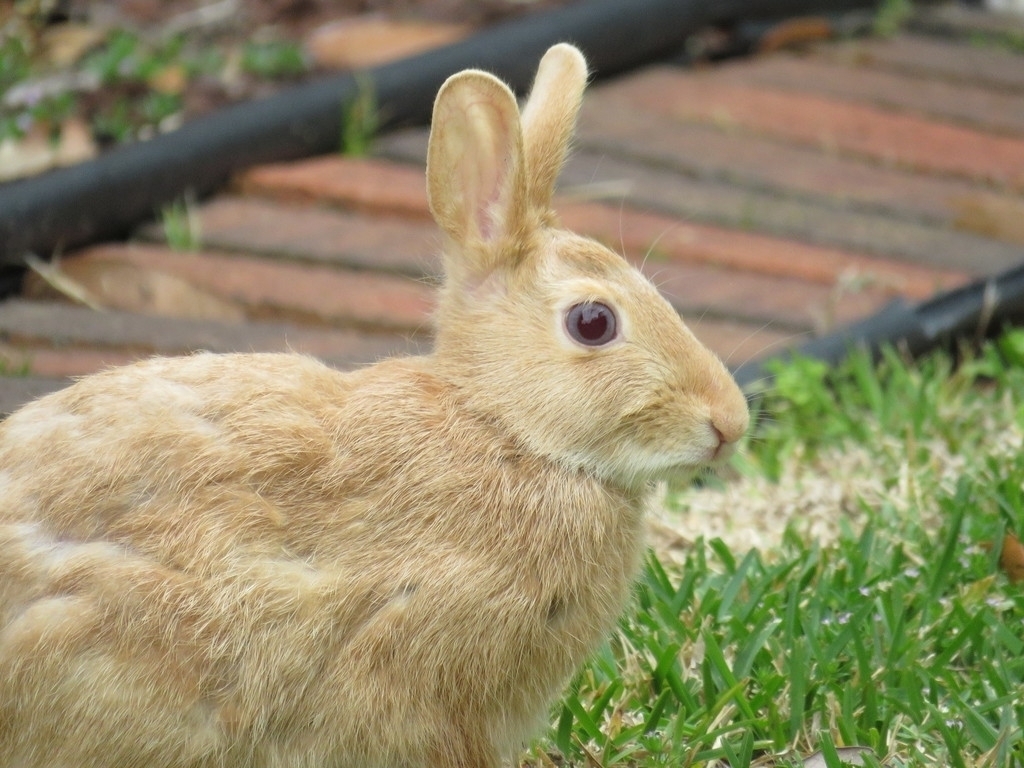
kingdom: Animalia
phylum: Chordata
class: Mammalia
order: Lagomorpha
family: Leporidae
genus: Sylvilagus
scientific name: Sylvilagus floridanus
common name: Eastern cottontail
